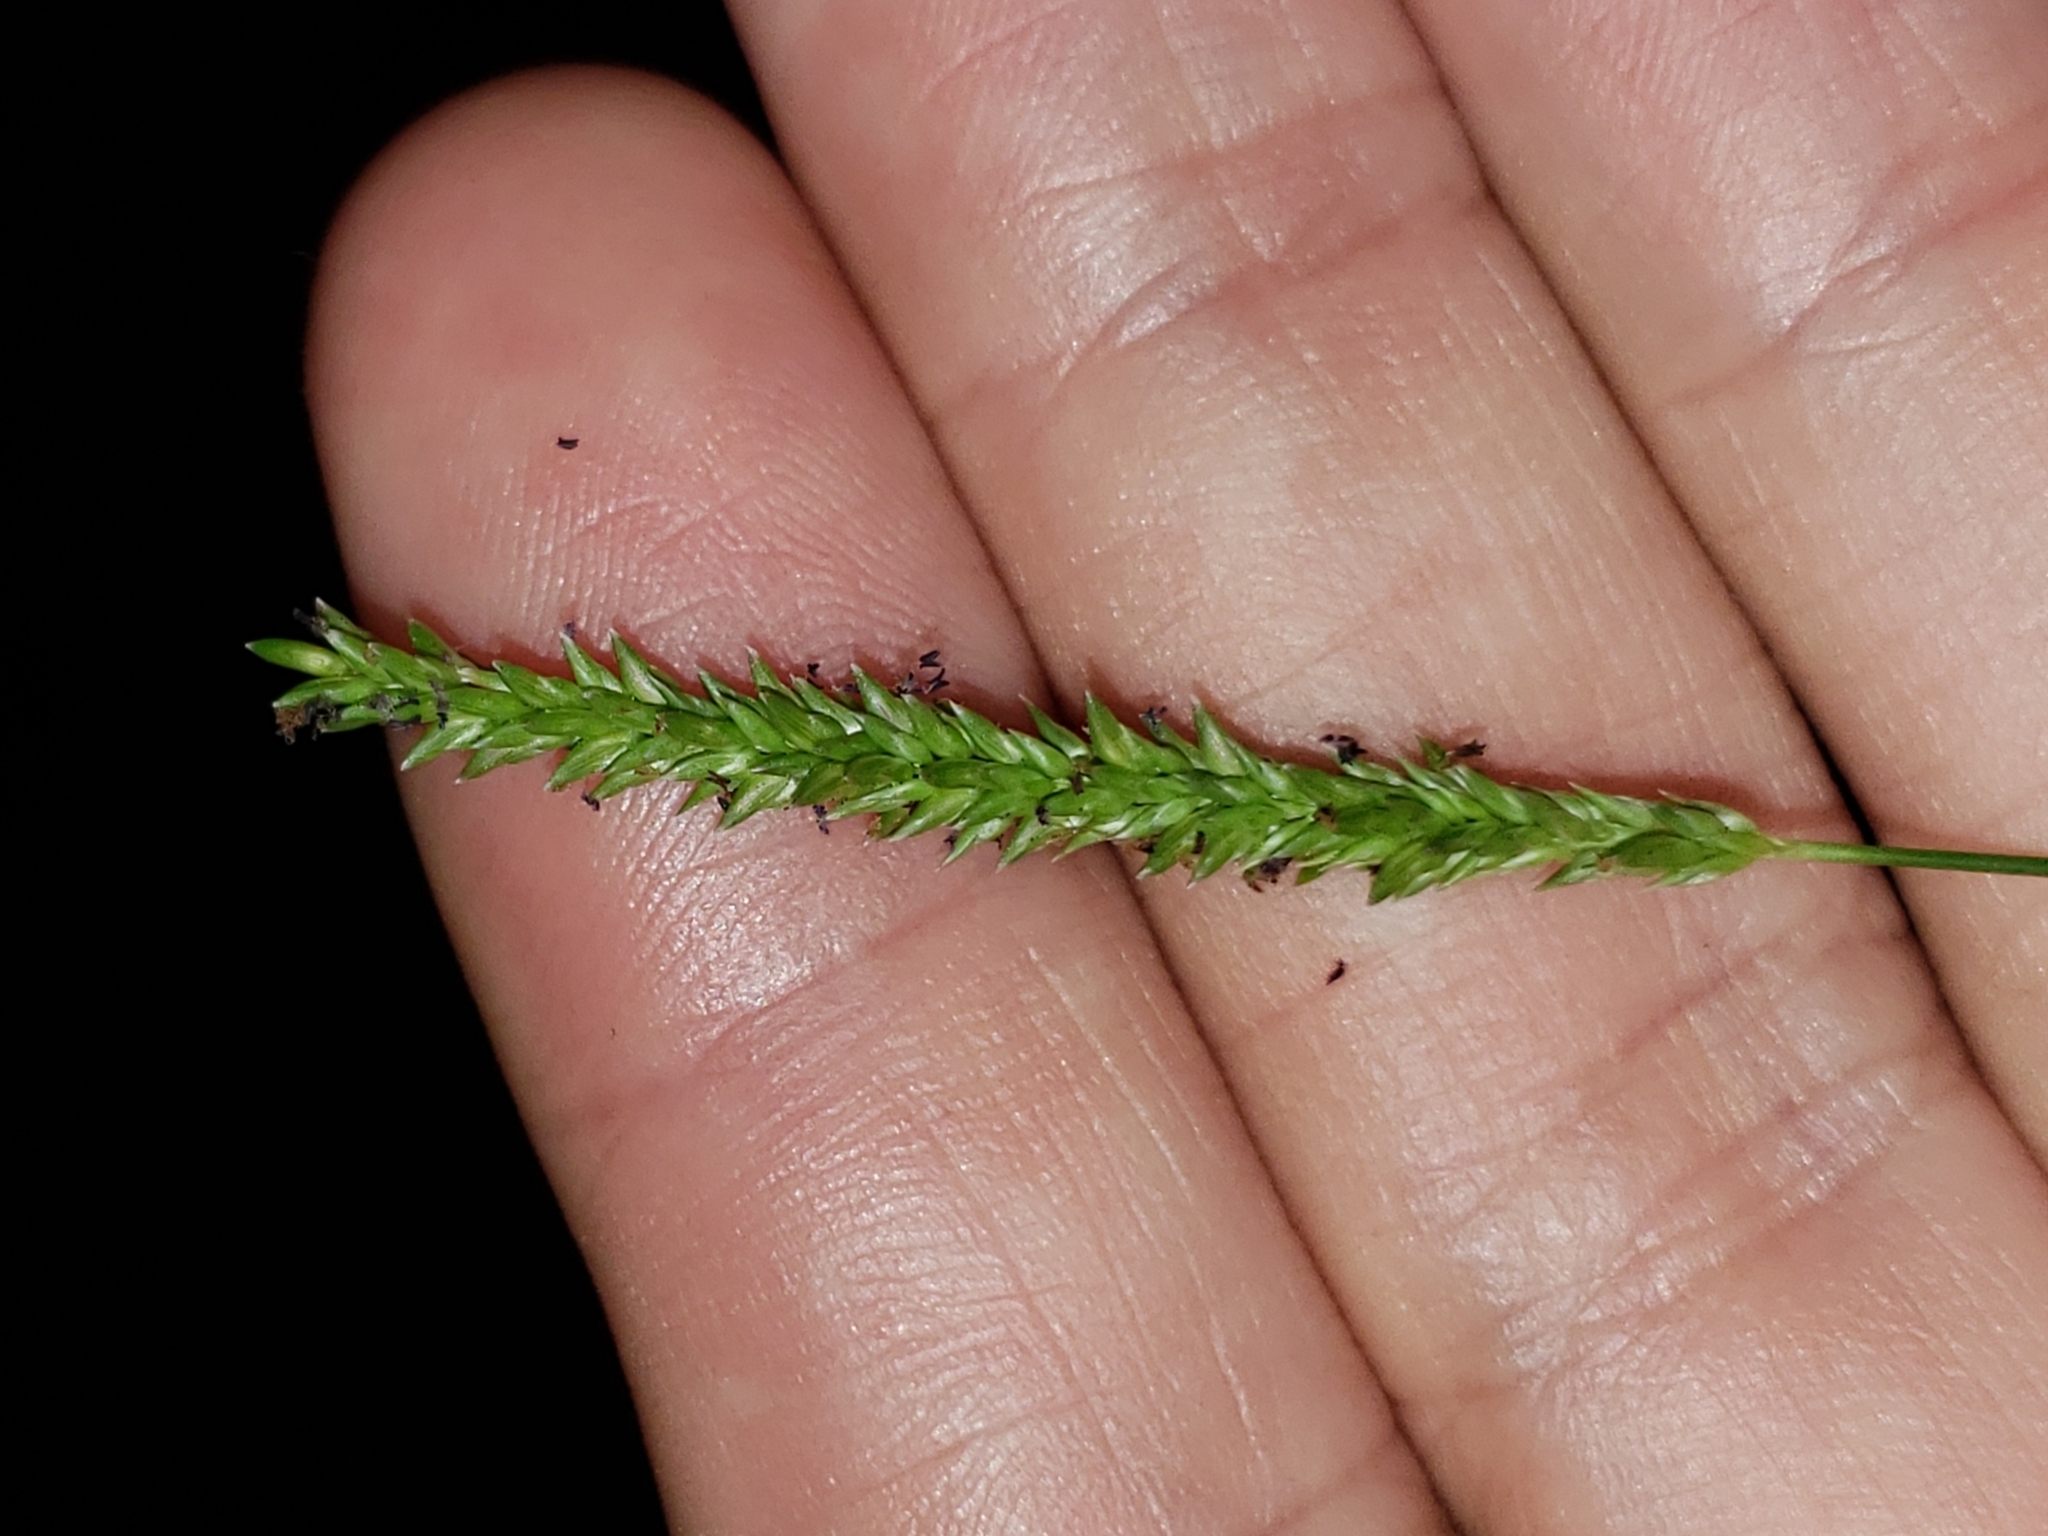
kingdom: Plantae
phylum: Tracheophyta
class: Liliopsida
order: Poales
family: Poaceae
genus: Sacciolepis
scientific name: Sacciolepis indica
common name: Glenwoodgrass
